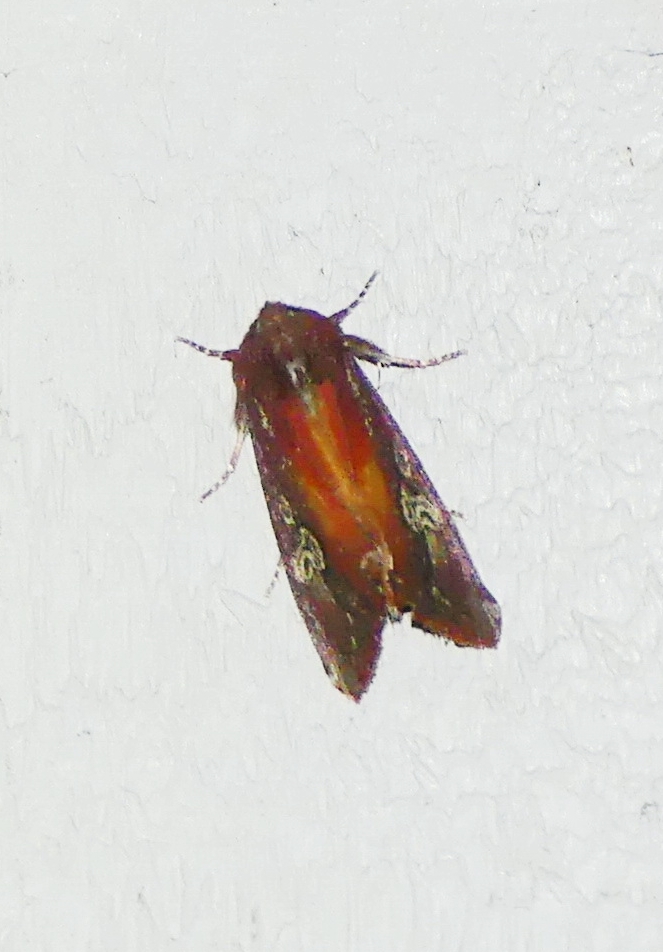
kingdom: Animalia
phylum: Arthropoda
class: Insecta
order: Lepidoptera
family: Noctuidae
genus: Melanchra
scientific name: Melanchra picta
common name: Zebra caterpillar
